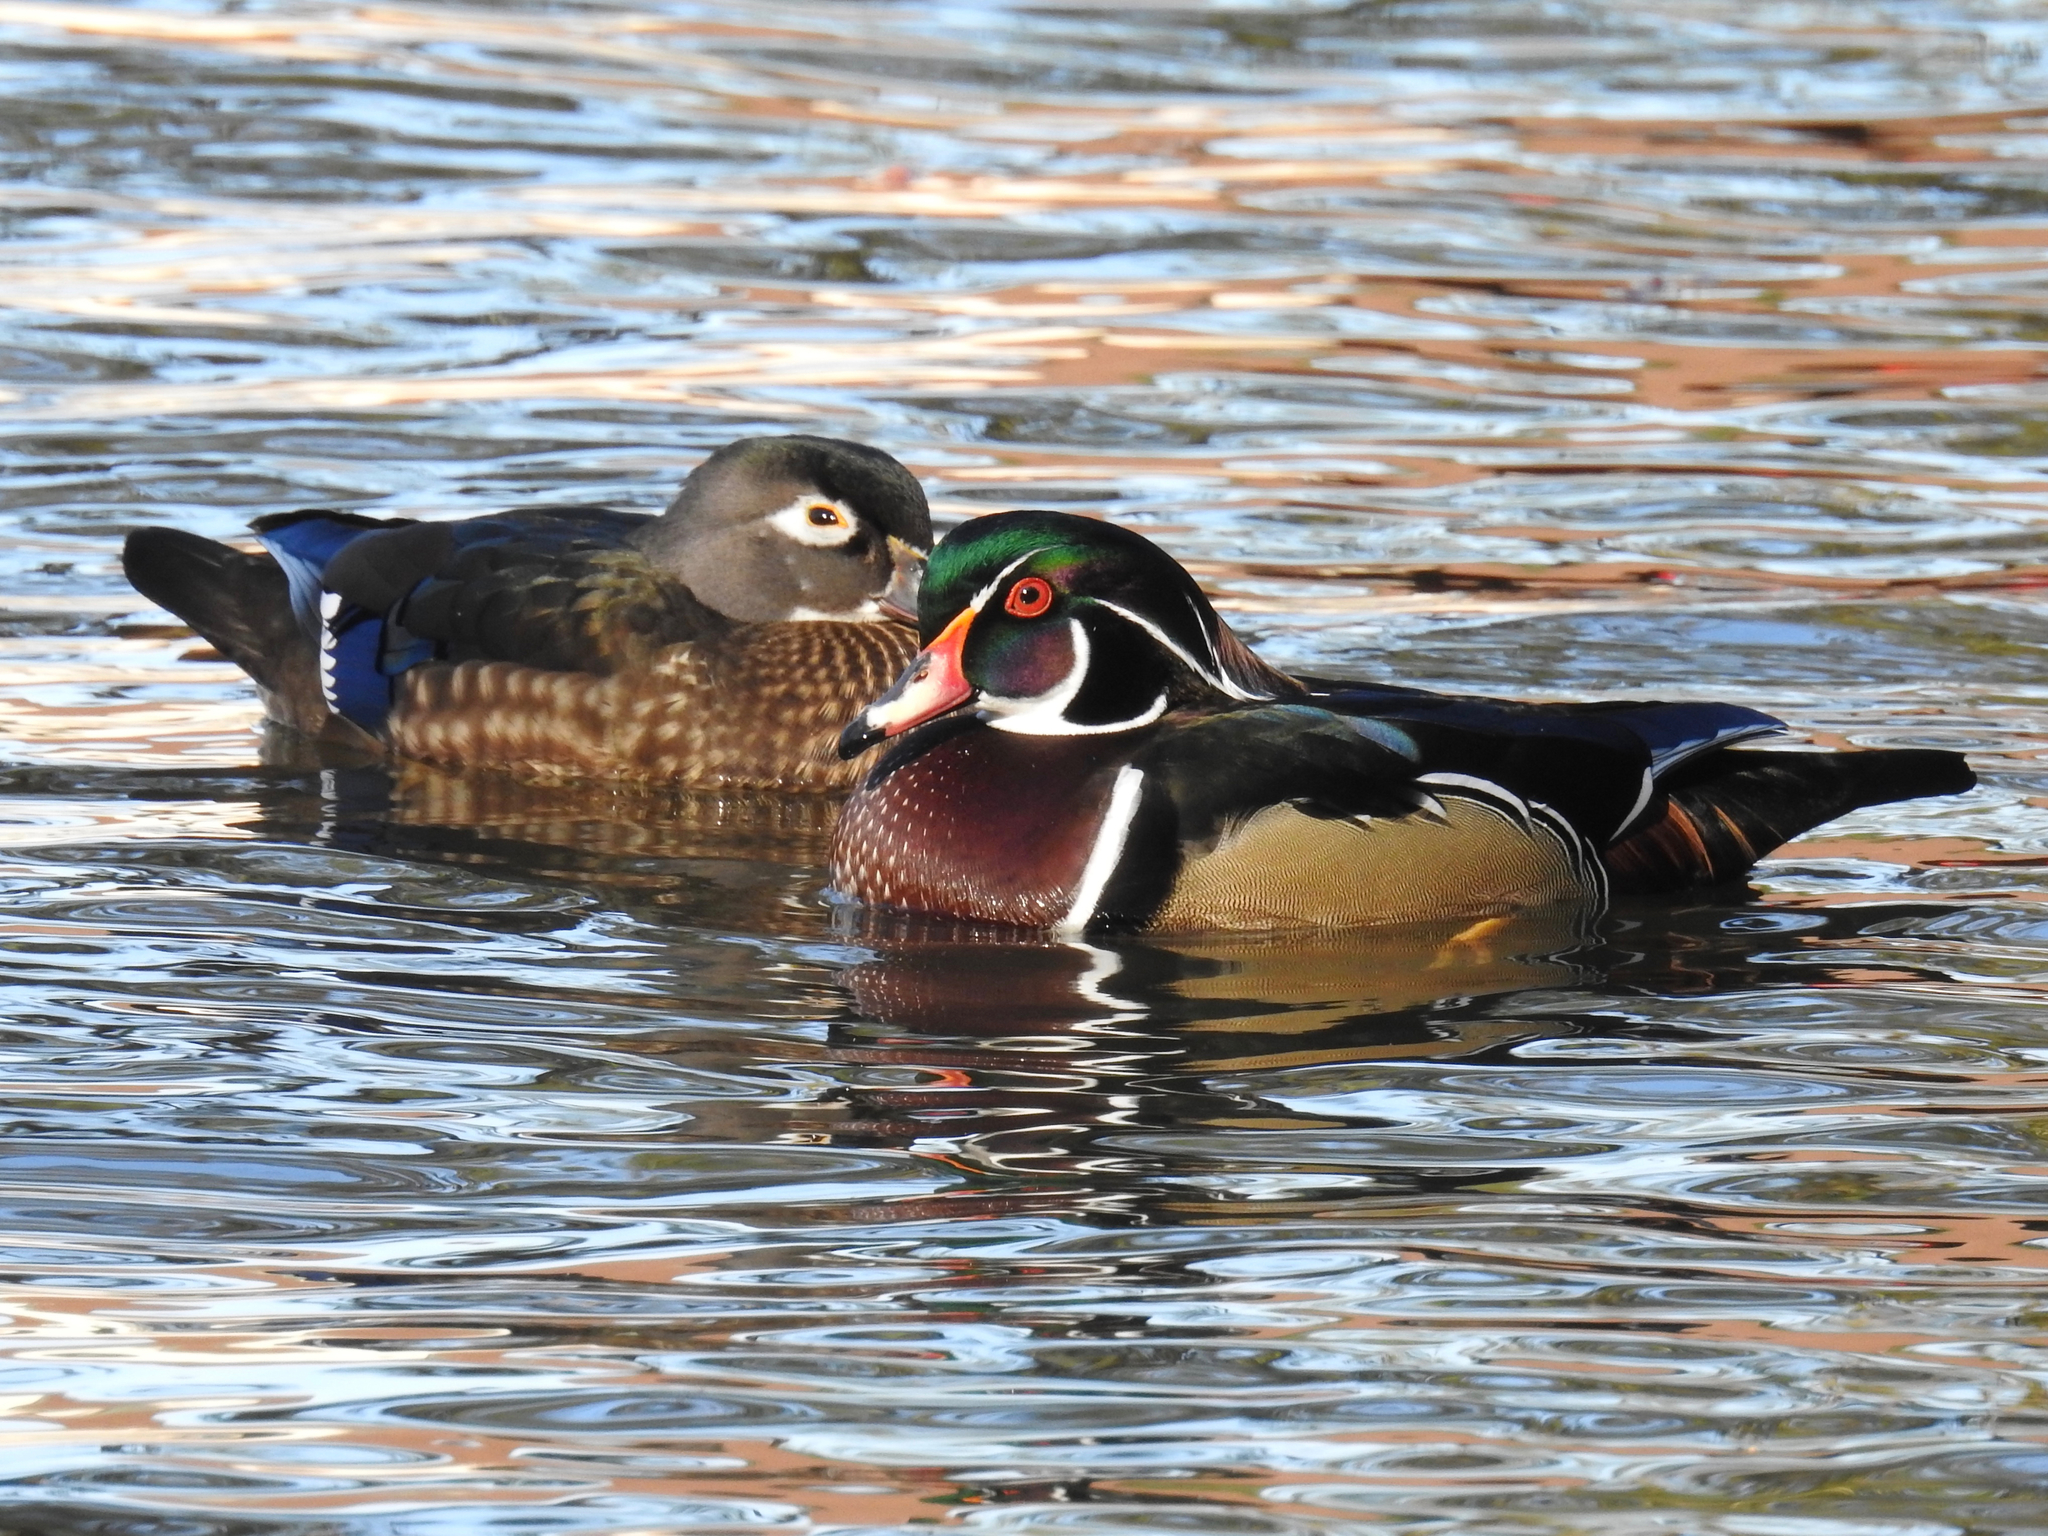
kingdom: Animalia
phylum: Chordata
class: Aves
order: Anseriformes
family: Anatidae
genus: Aix
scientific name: Aix sponsa
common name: Wood duck
